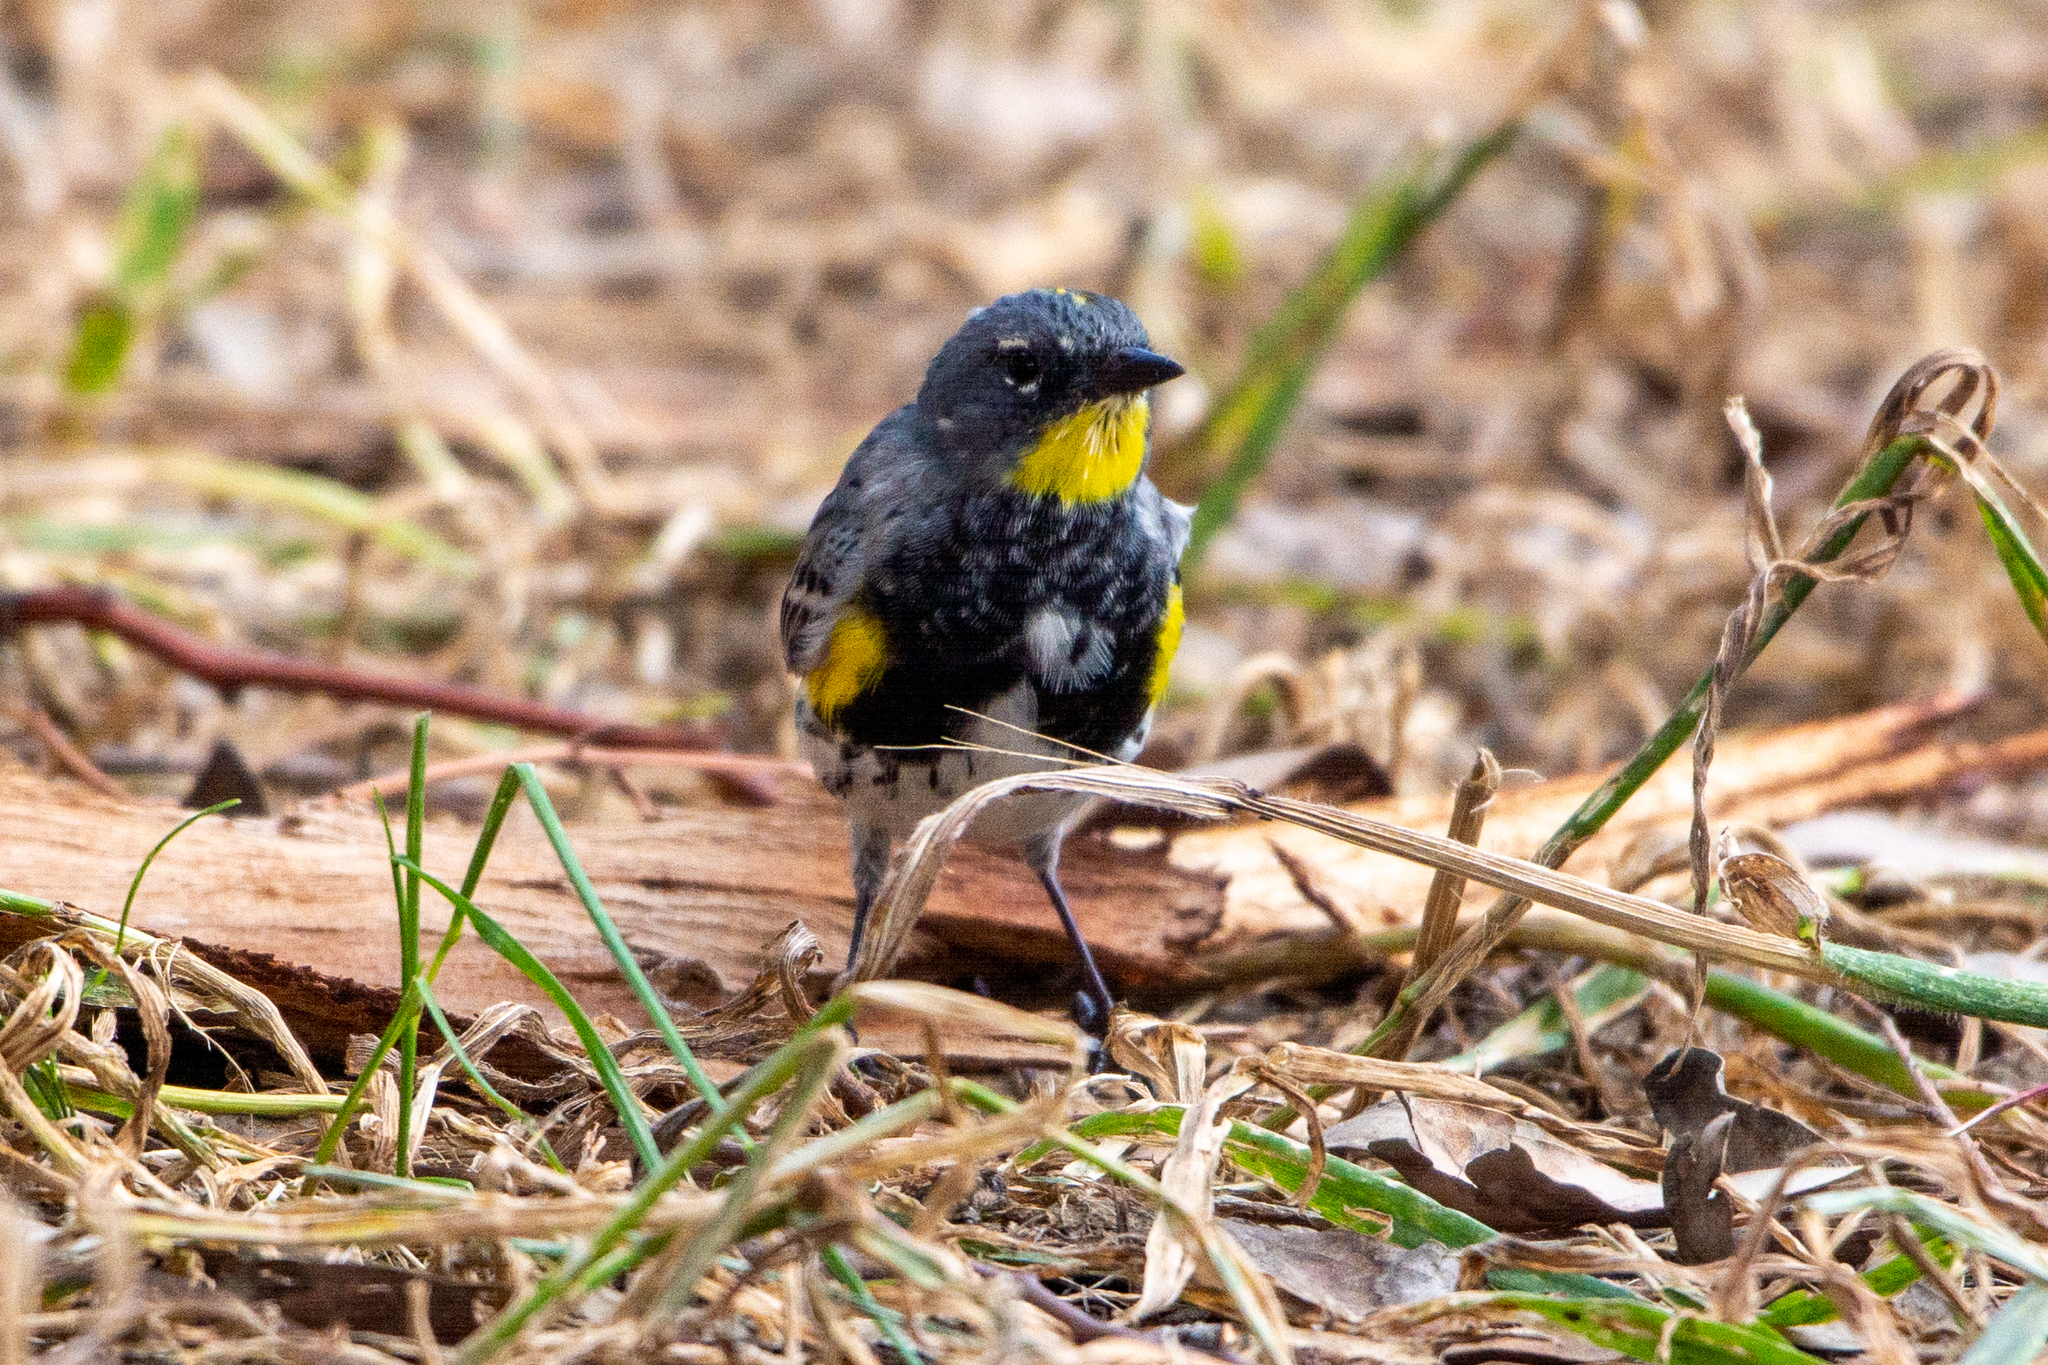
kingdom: Animalia
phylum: Chordata
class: Aves
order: Passeriformes
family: Parulidae
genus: Setophaga
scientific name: Setophaga coronata
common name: Myrtle warbler
